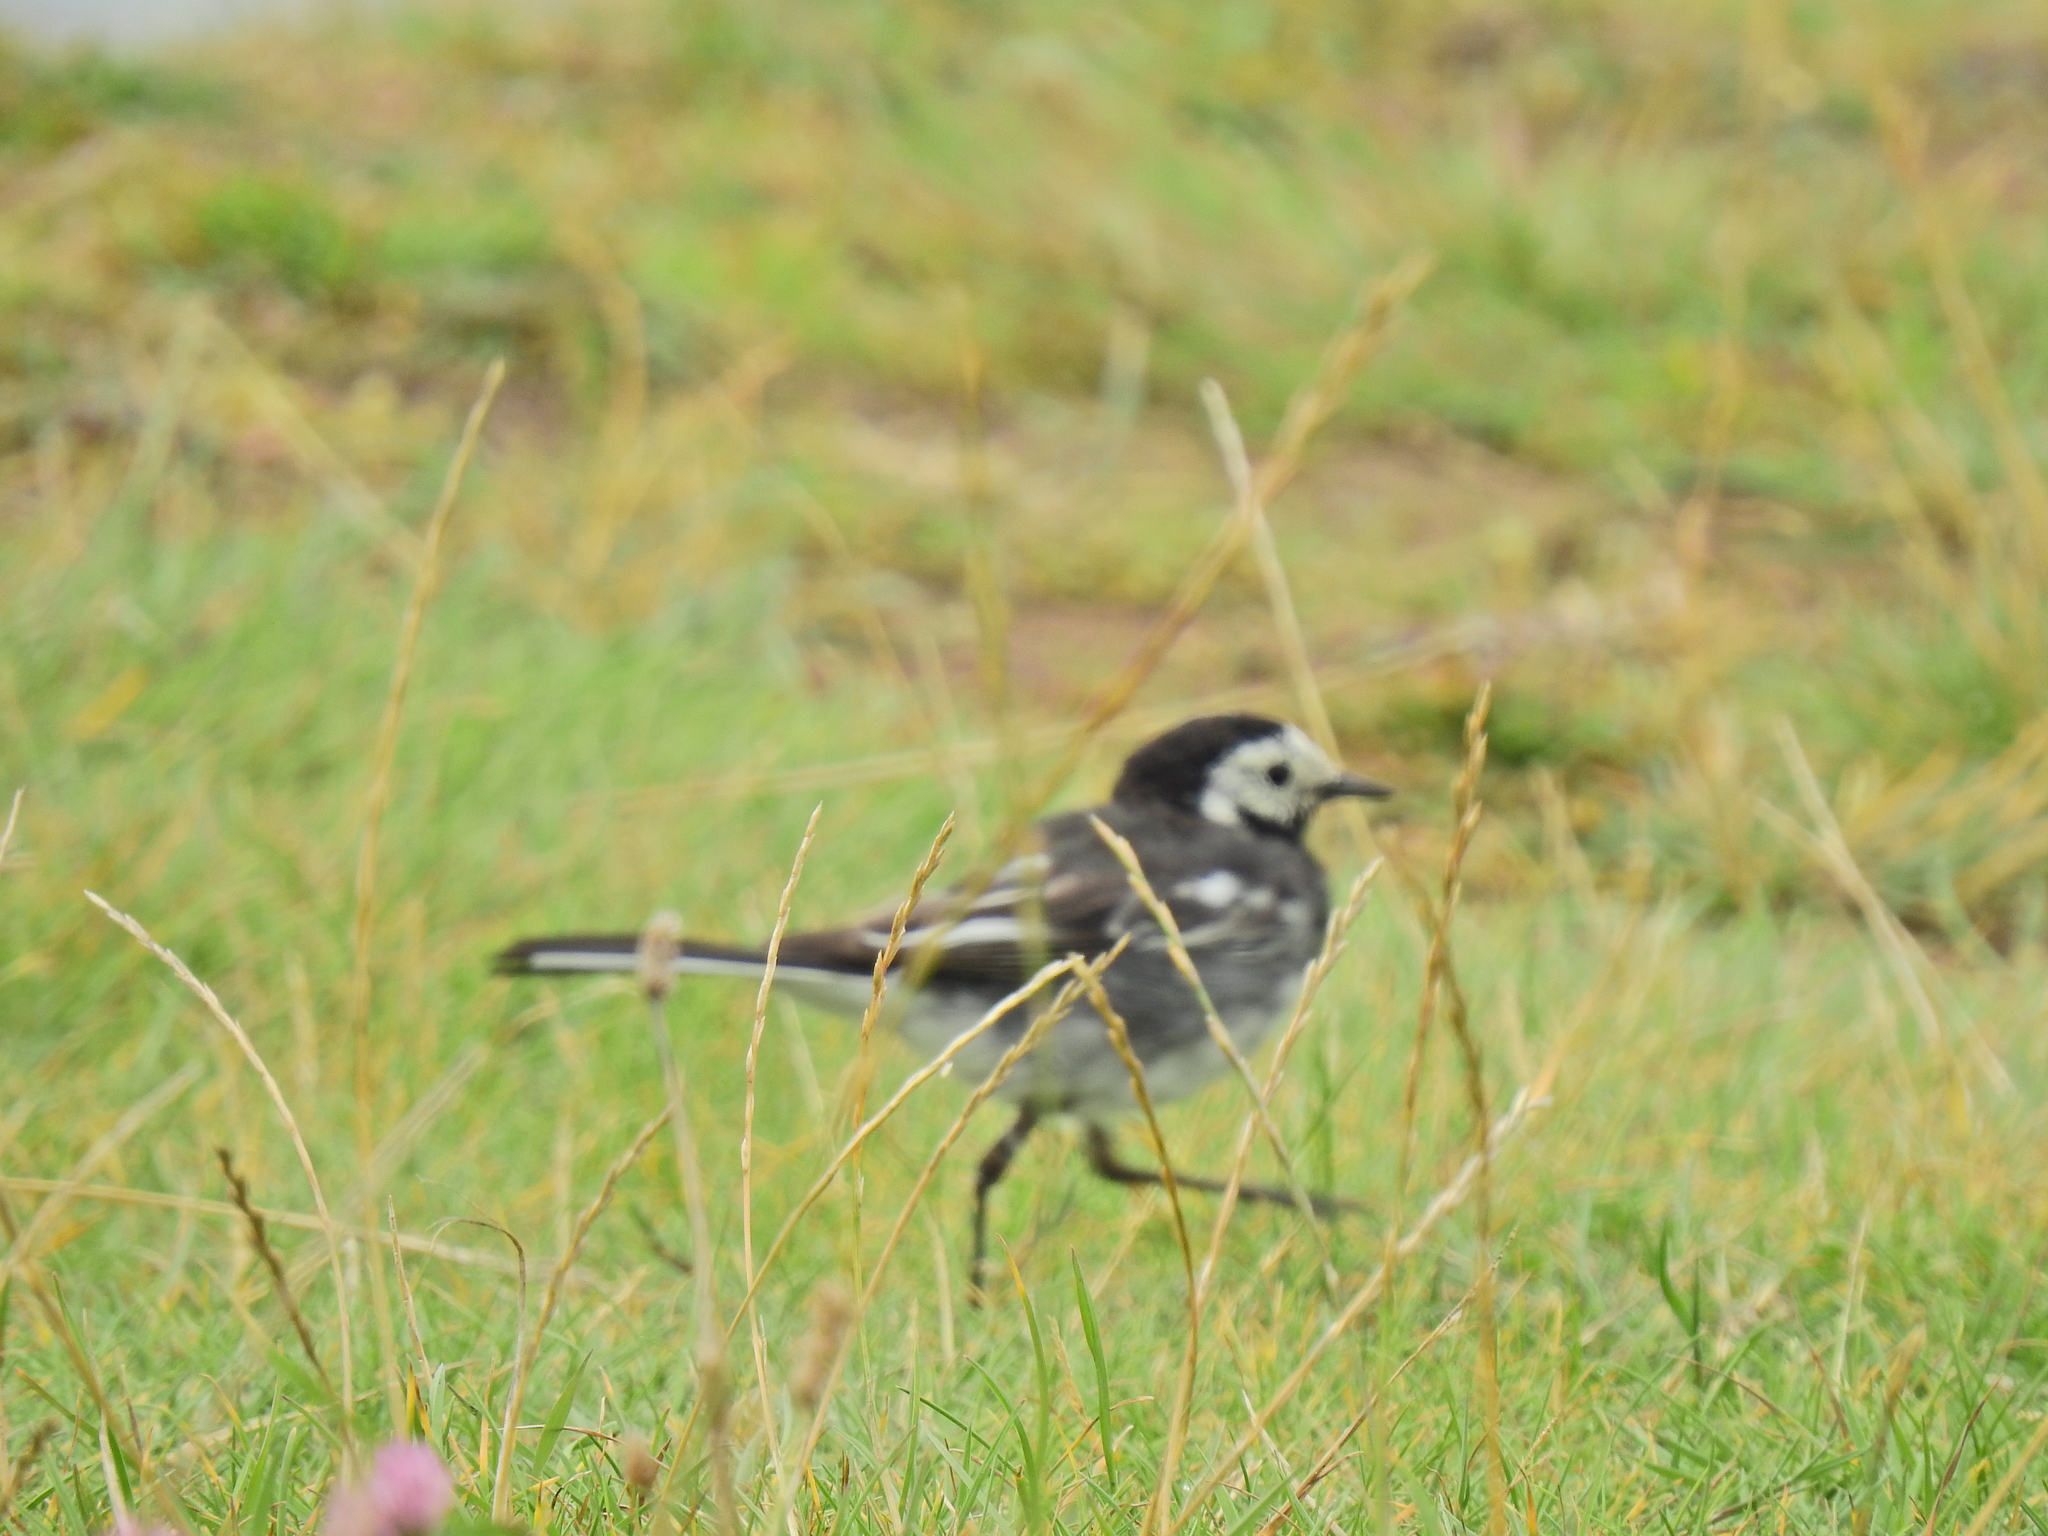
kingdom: Animalia
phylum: Chordata
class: Aves
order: Passeriformes
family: Motacillidae
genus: Motacilla
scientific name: Motacilla alba
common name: White wagtail
